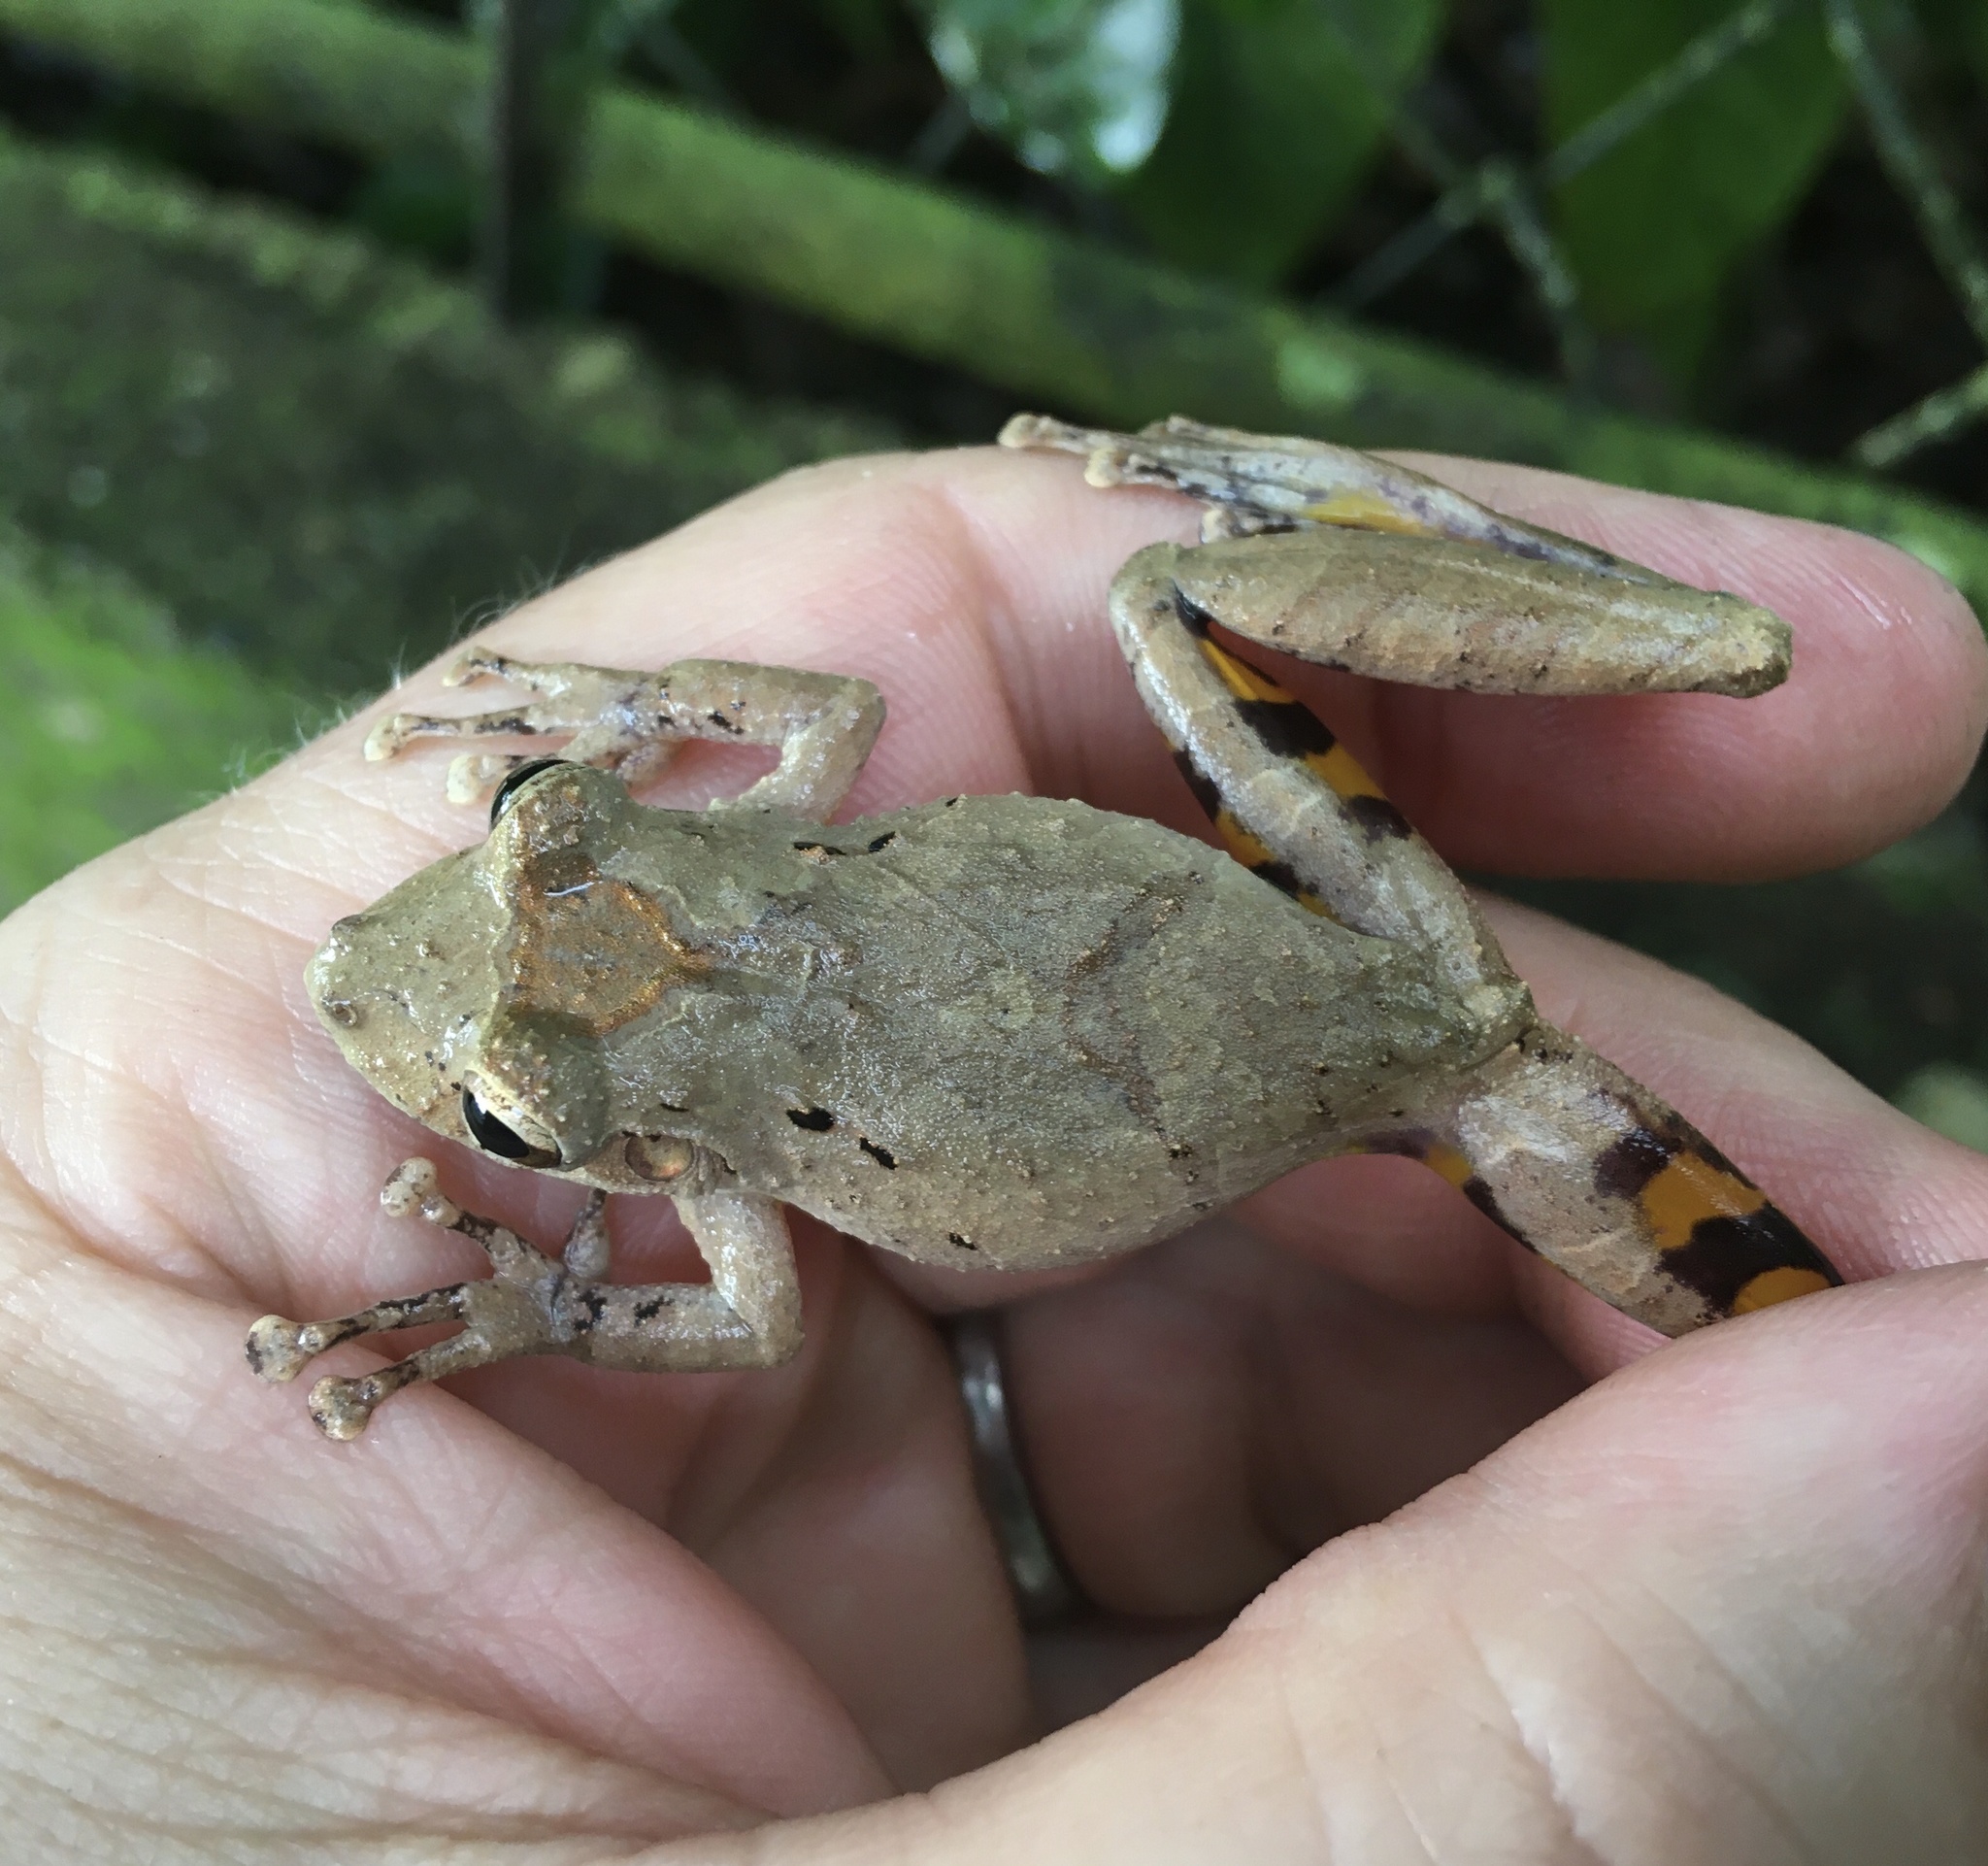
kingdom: Animalia
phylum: Chordata
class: Amphibia
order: Anura
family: Hylidae
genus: Scinax
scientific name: Scinax rostratus
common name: Caracas snouted treefrog
